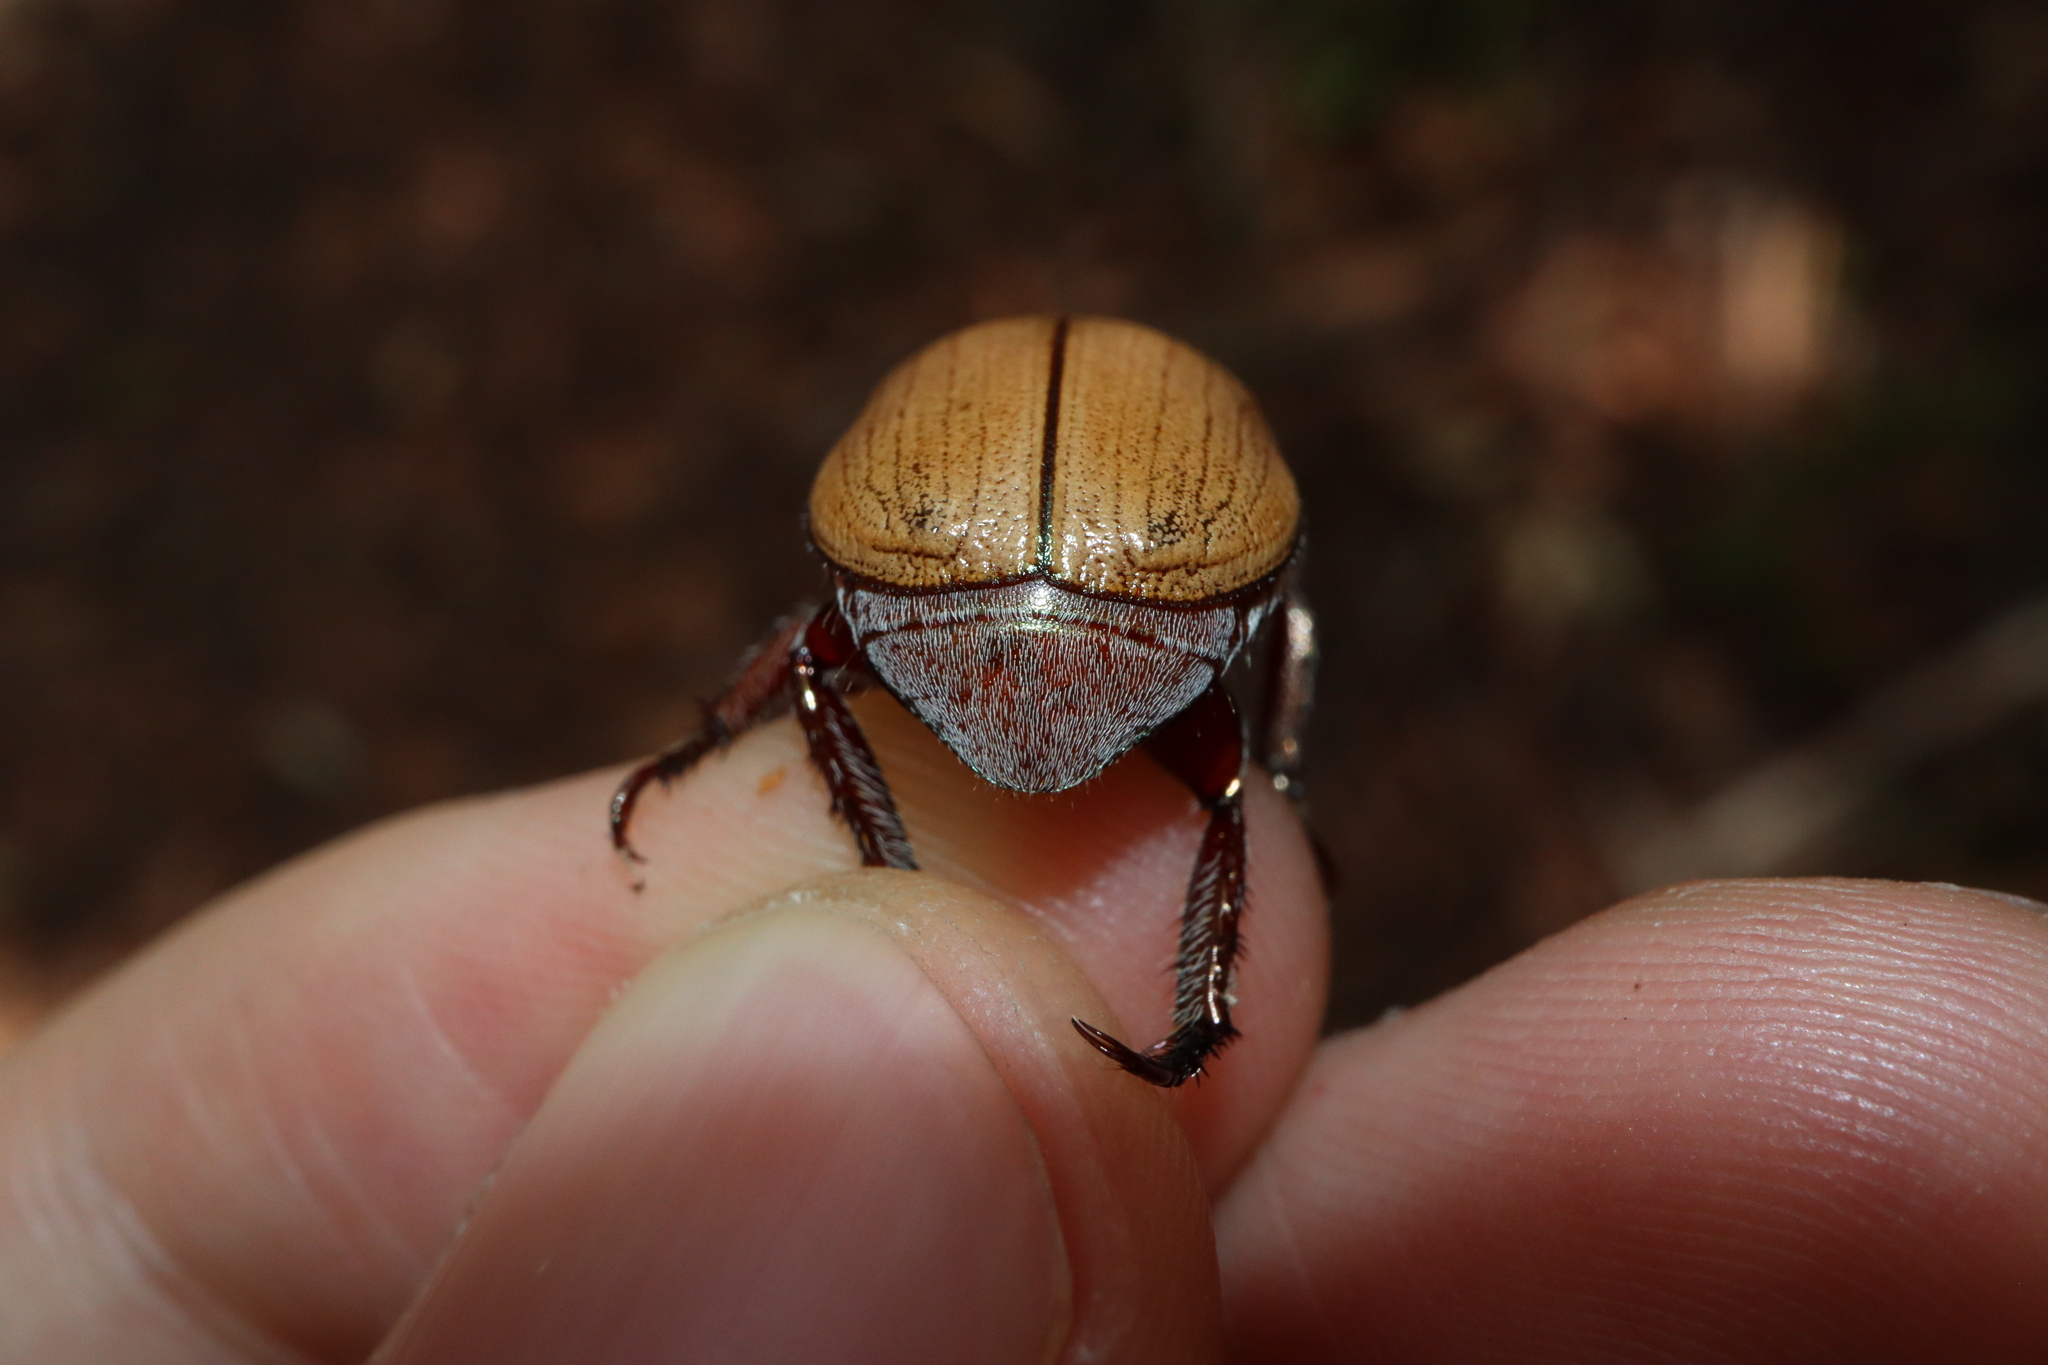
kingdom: Animalia
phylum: Arthropoda
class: Insecta
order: Coleoptera
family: Scarabaeidae
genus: Anoplognathus
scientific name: Anoplognathus flavipennis
